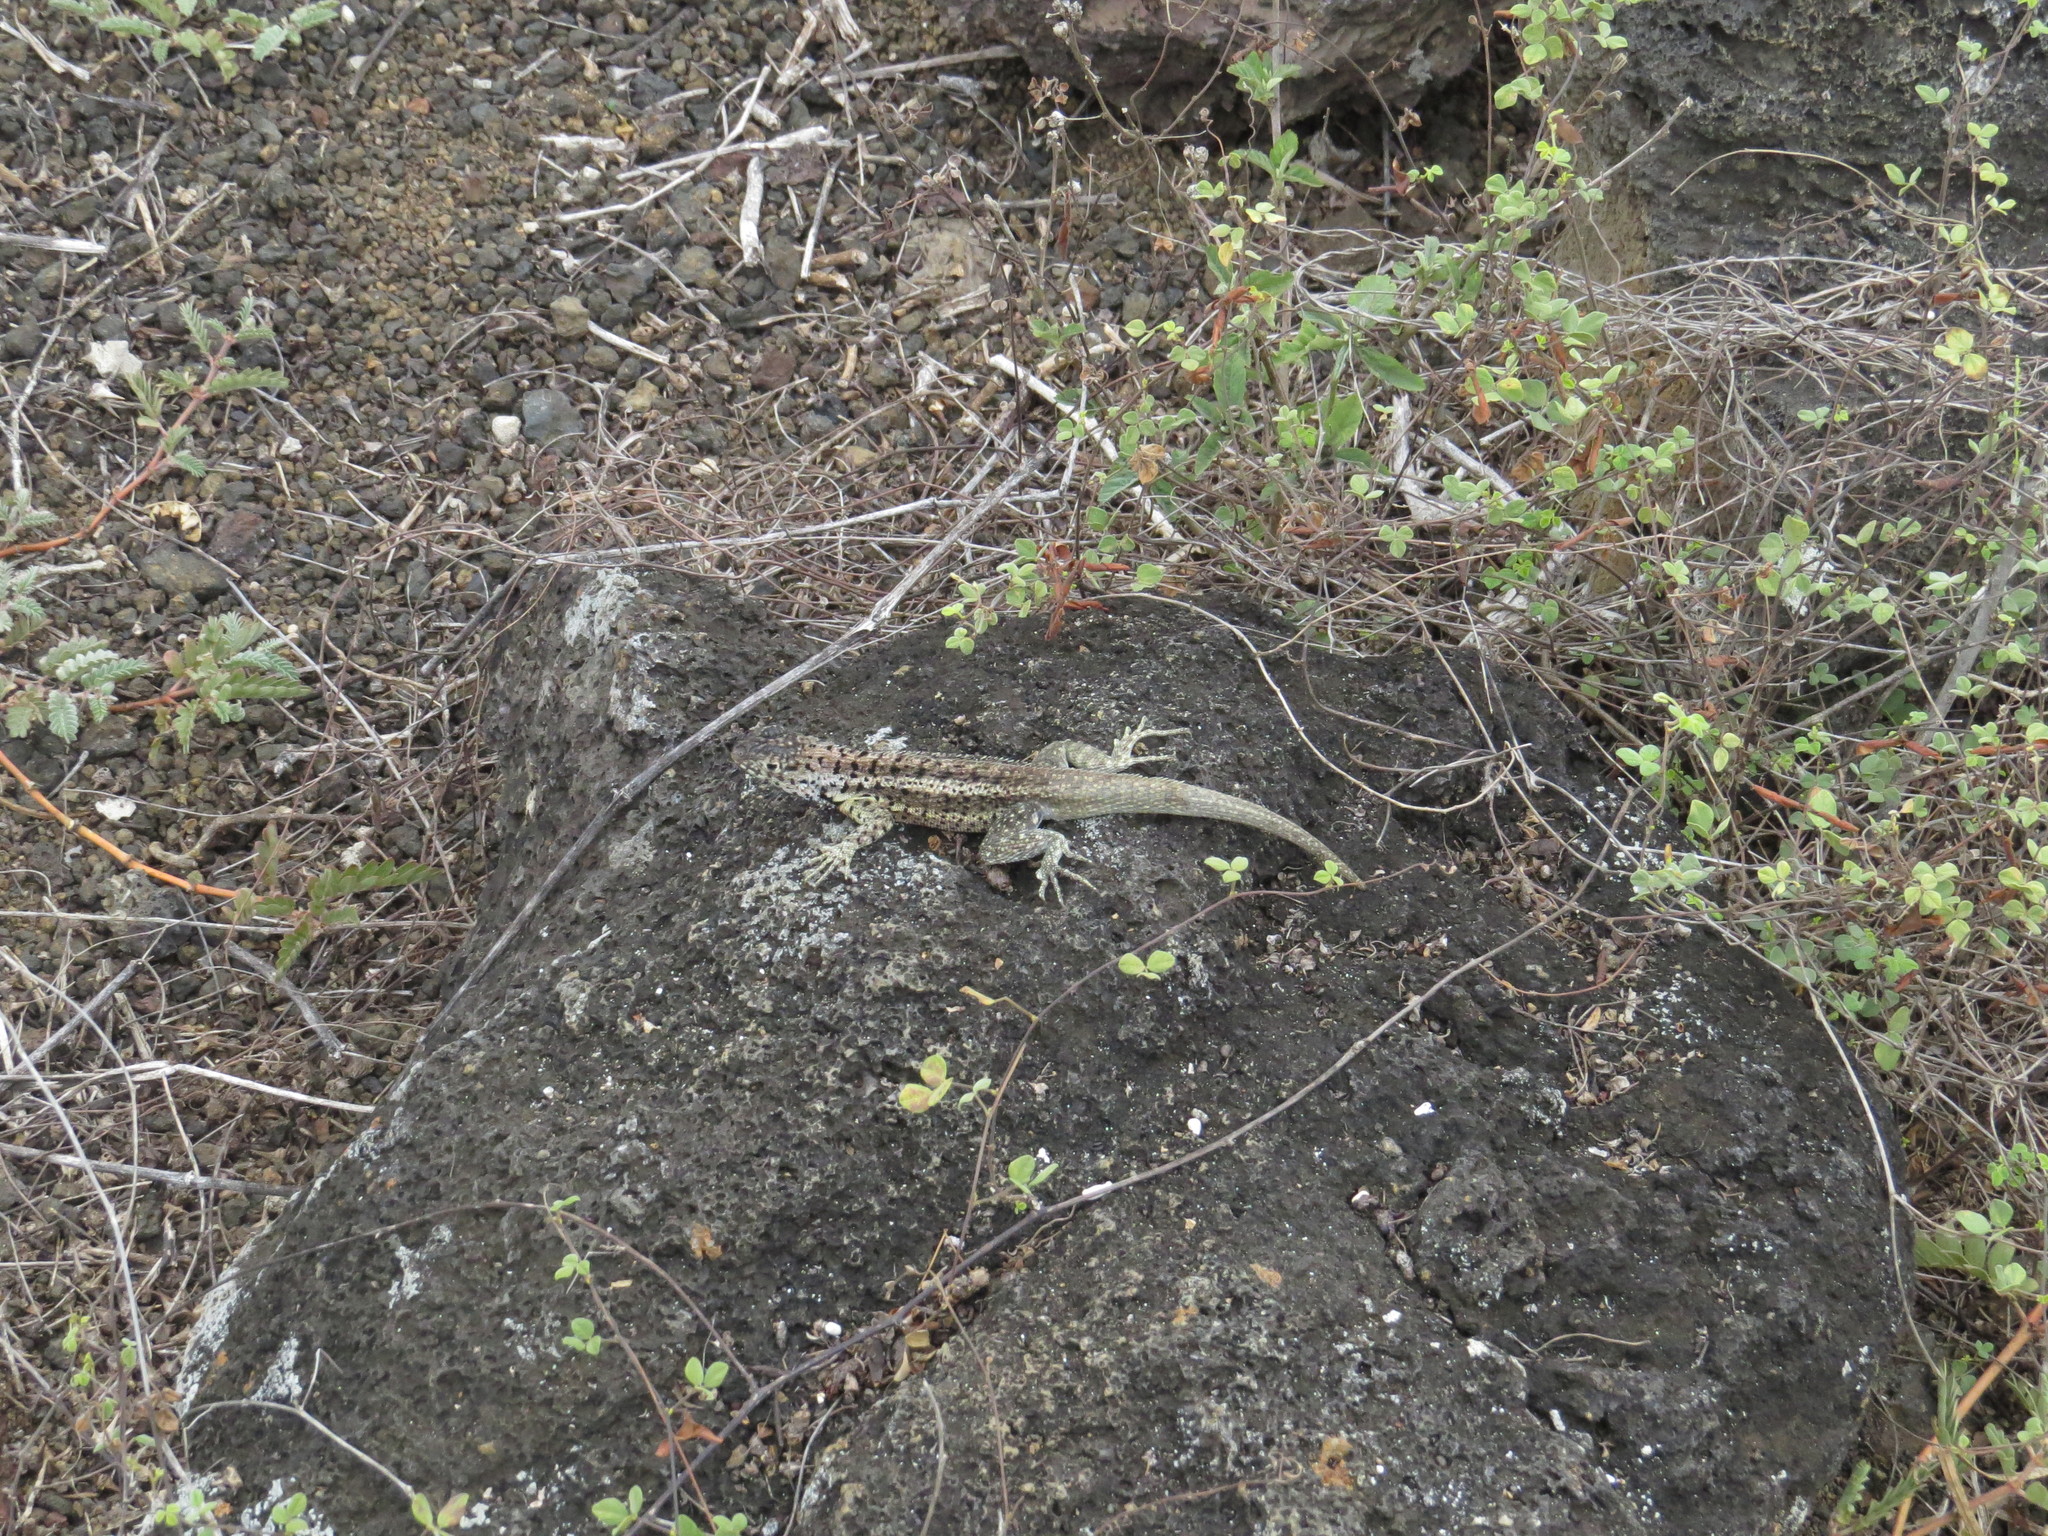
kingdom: Animalia
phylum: Chordata
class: Squamata
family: Tropiduridae
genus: Microlophus
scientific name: Microlophus albemarlensis
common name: Galapagos lava lizard
